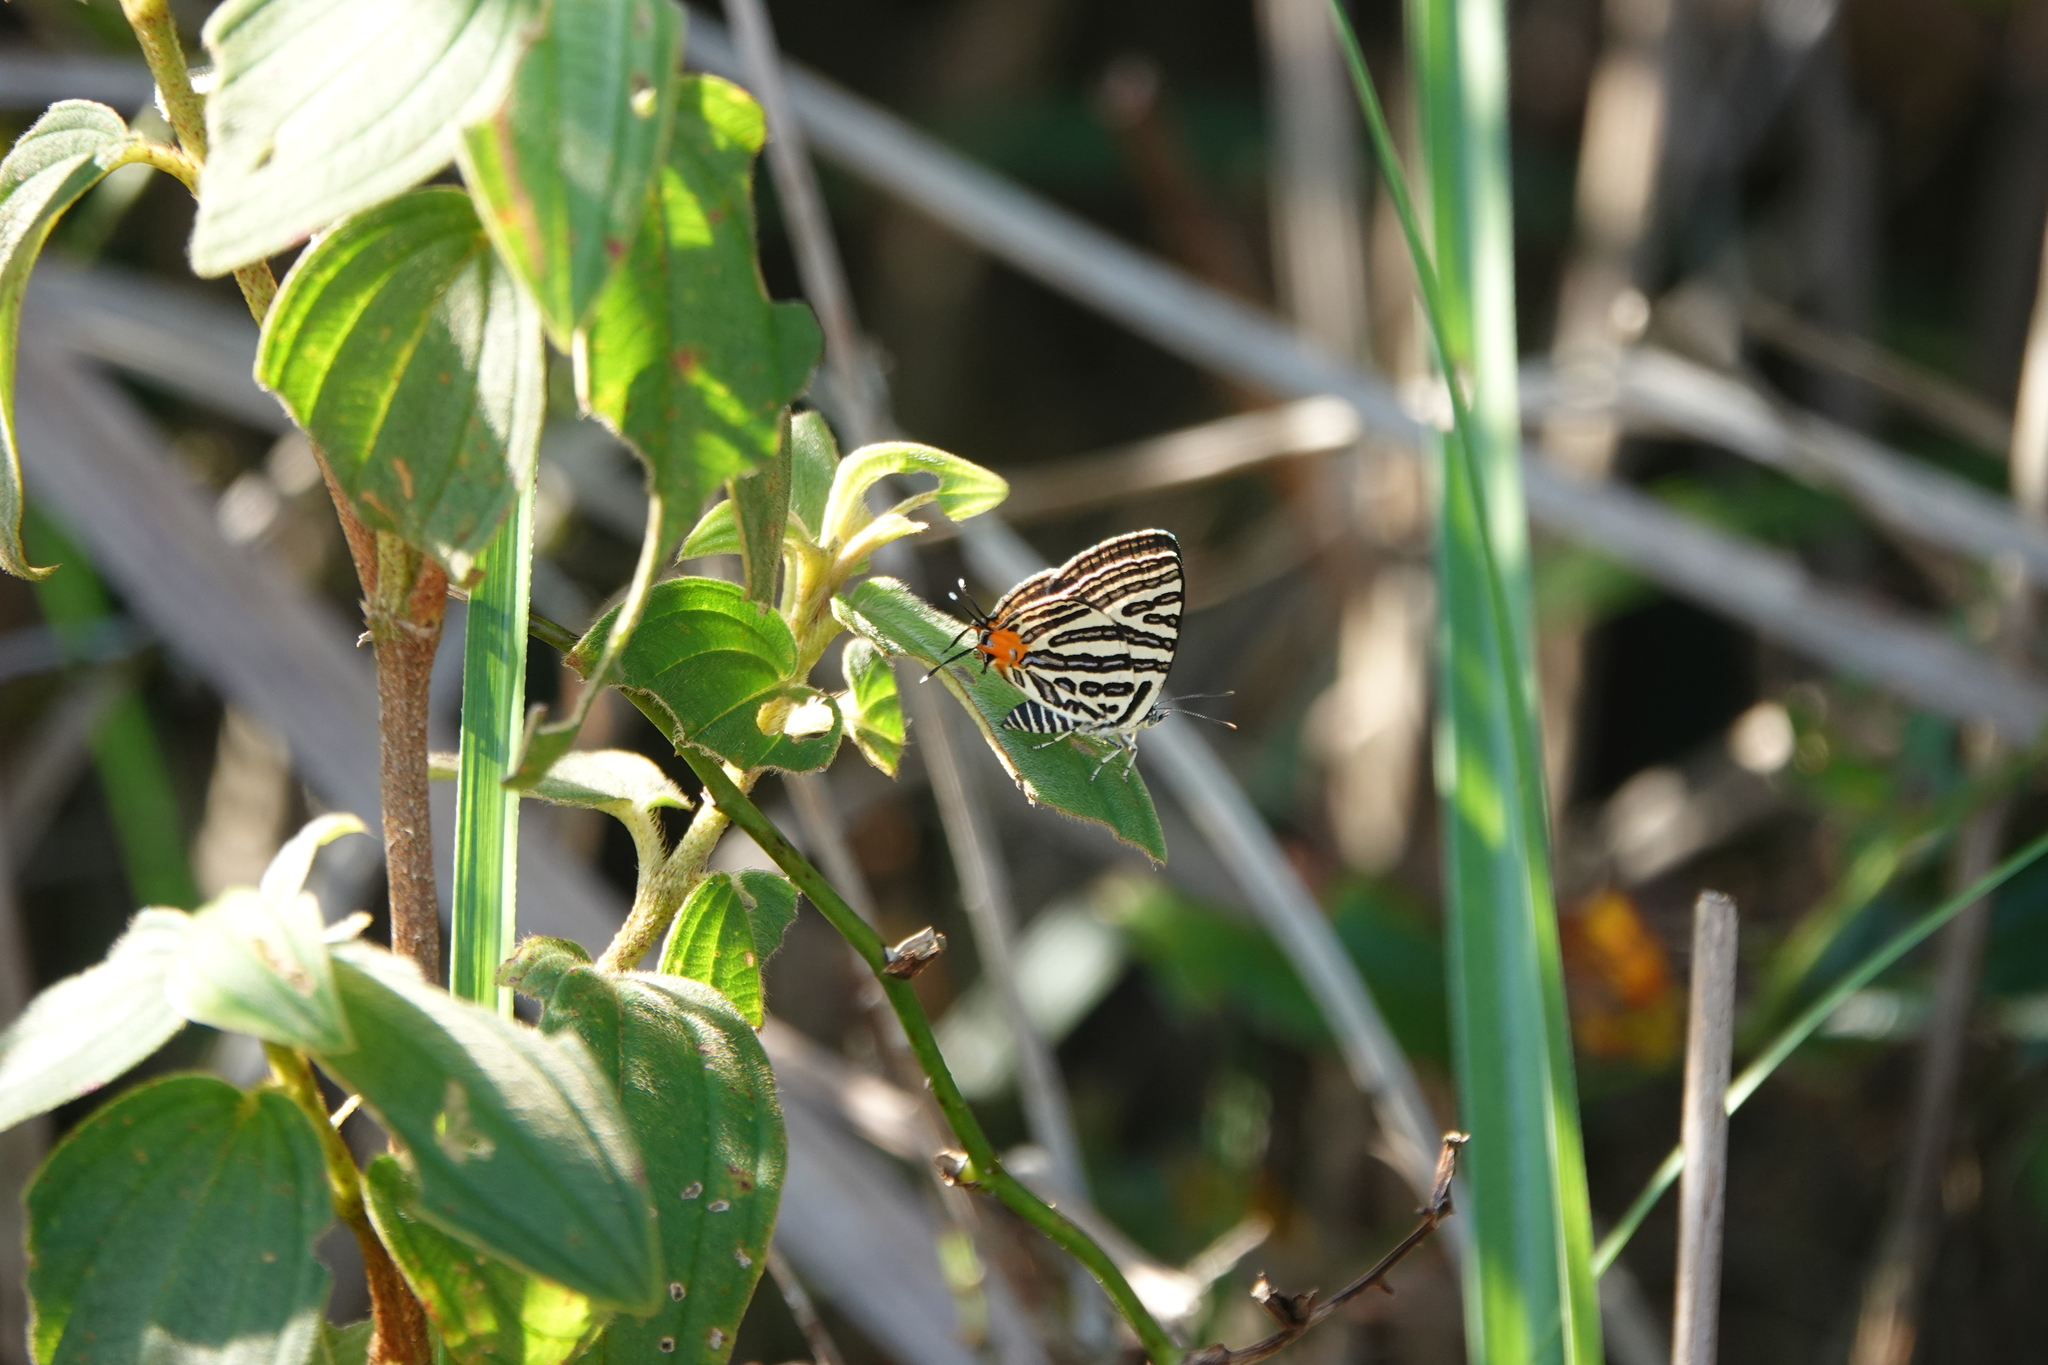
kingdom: Animalia
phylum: Arthropoda
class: Insecta
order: Lepidoptera
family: Lycaenidae
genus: Cigaritis
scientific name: Cigaritis syama
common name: Club silverline
